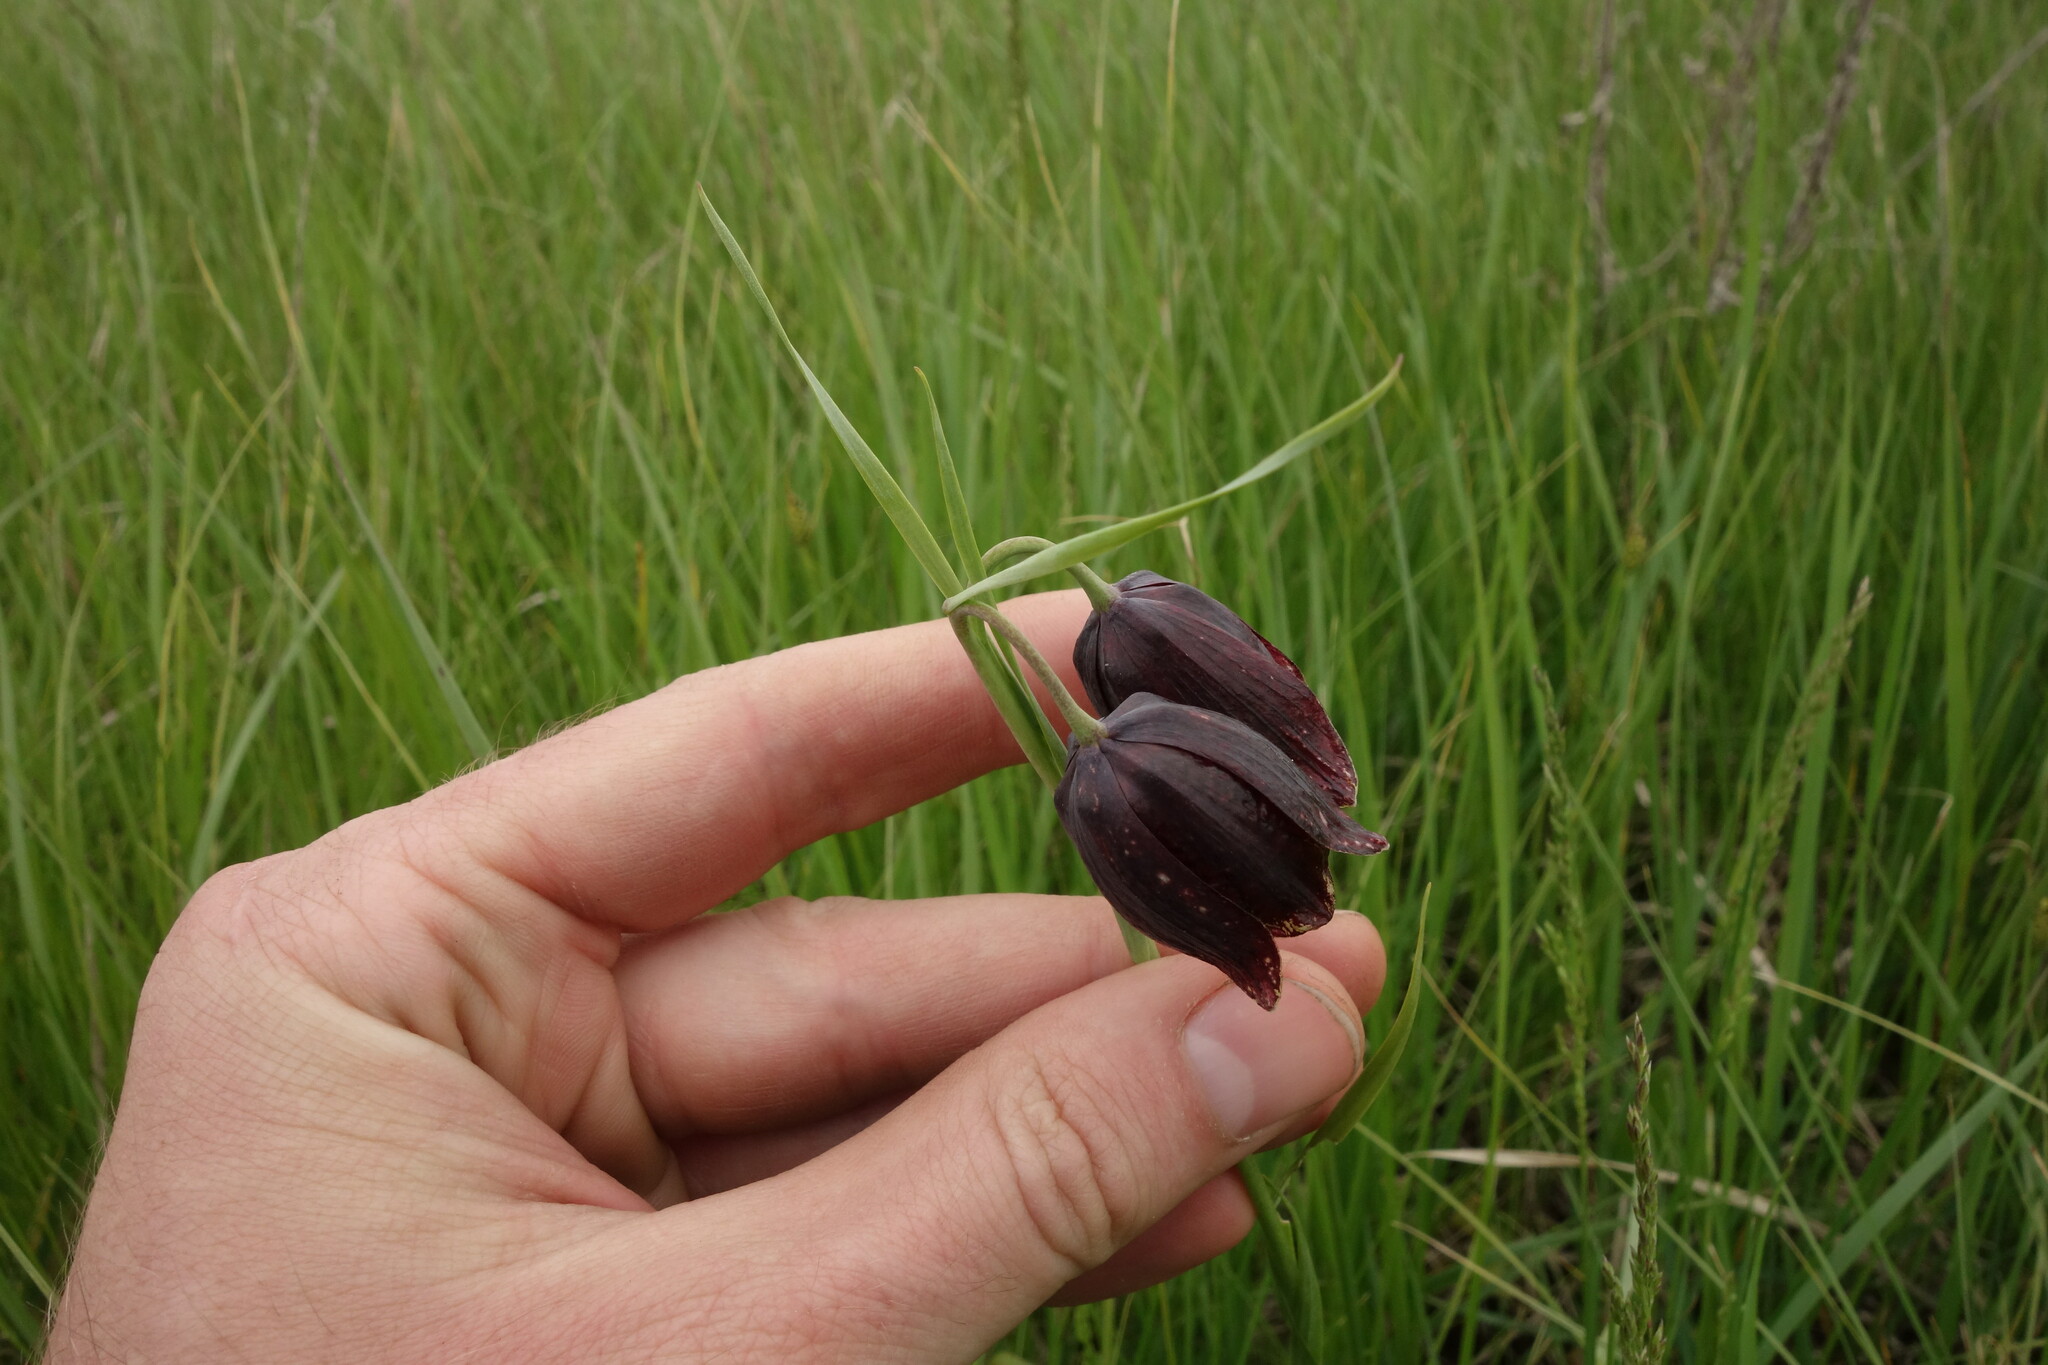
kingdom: Plantae
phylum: Tracheophyta
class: Liliopsida
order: Liliales
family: Liliaceae
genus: Fritillaria
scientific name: Fritillaria meleagroides
